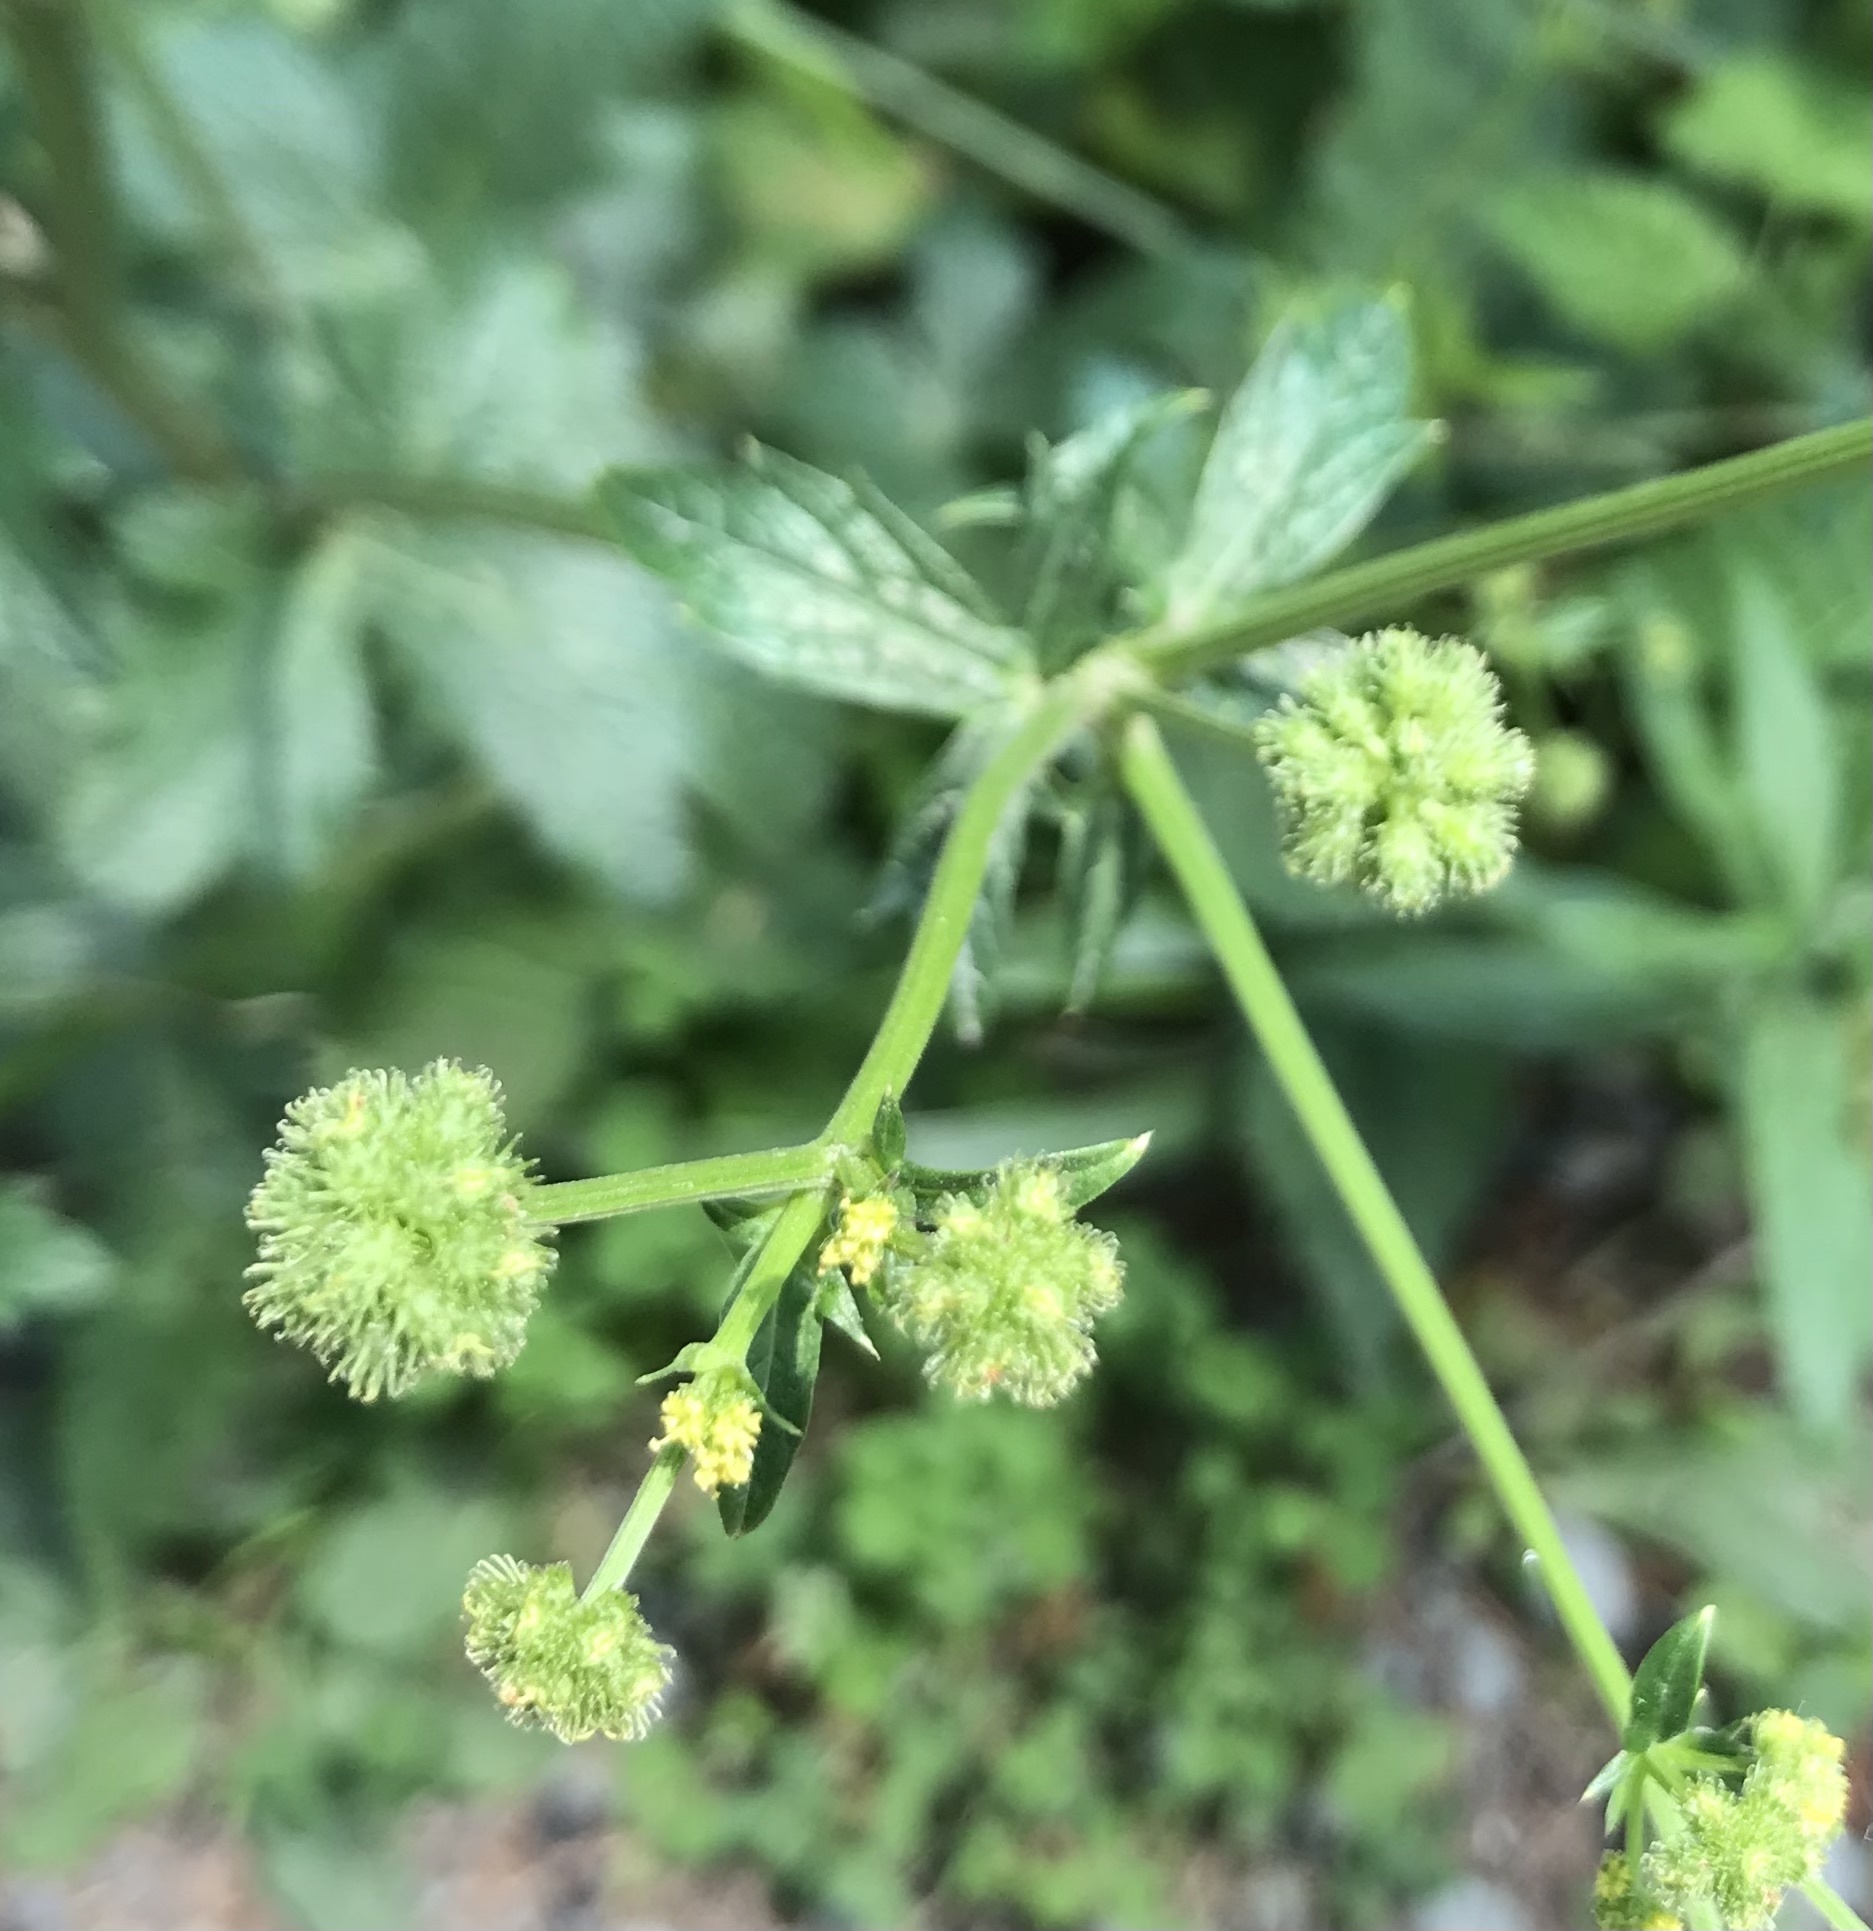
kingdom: Plantae
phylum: Tracheophyta
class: Magnoliopsida
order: Apiales
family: Apiaceae
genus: Sanicula
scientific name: Sanicula crassicaulis
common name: Western snakeroot
